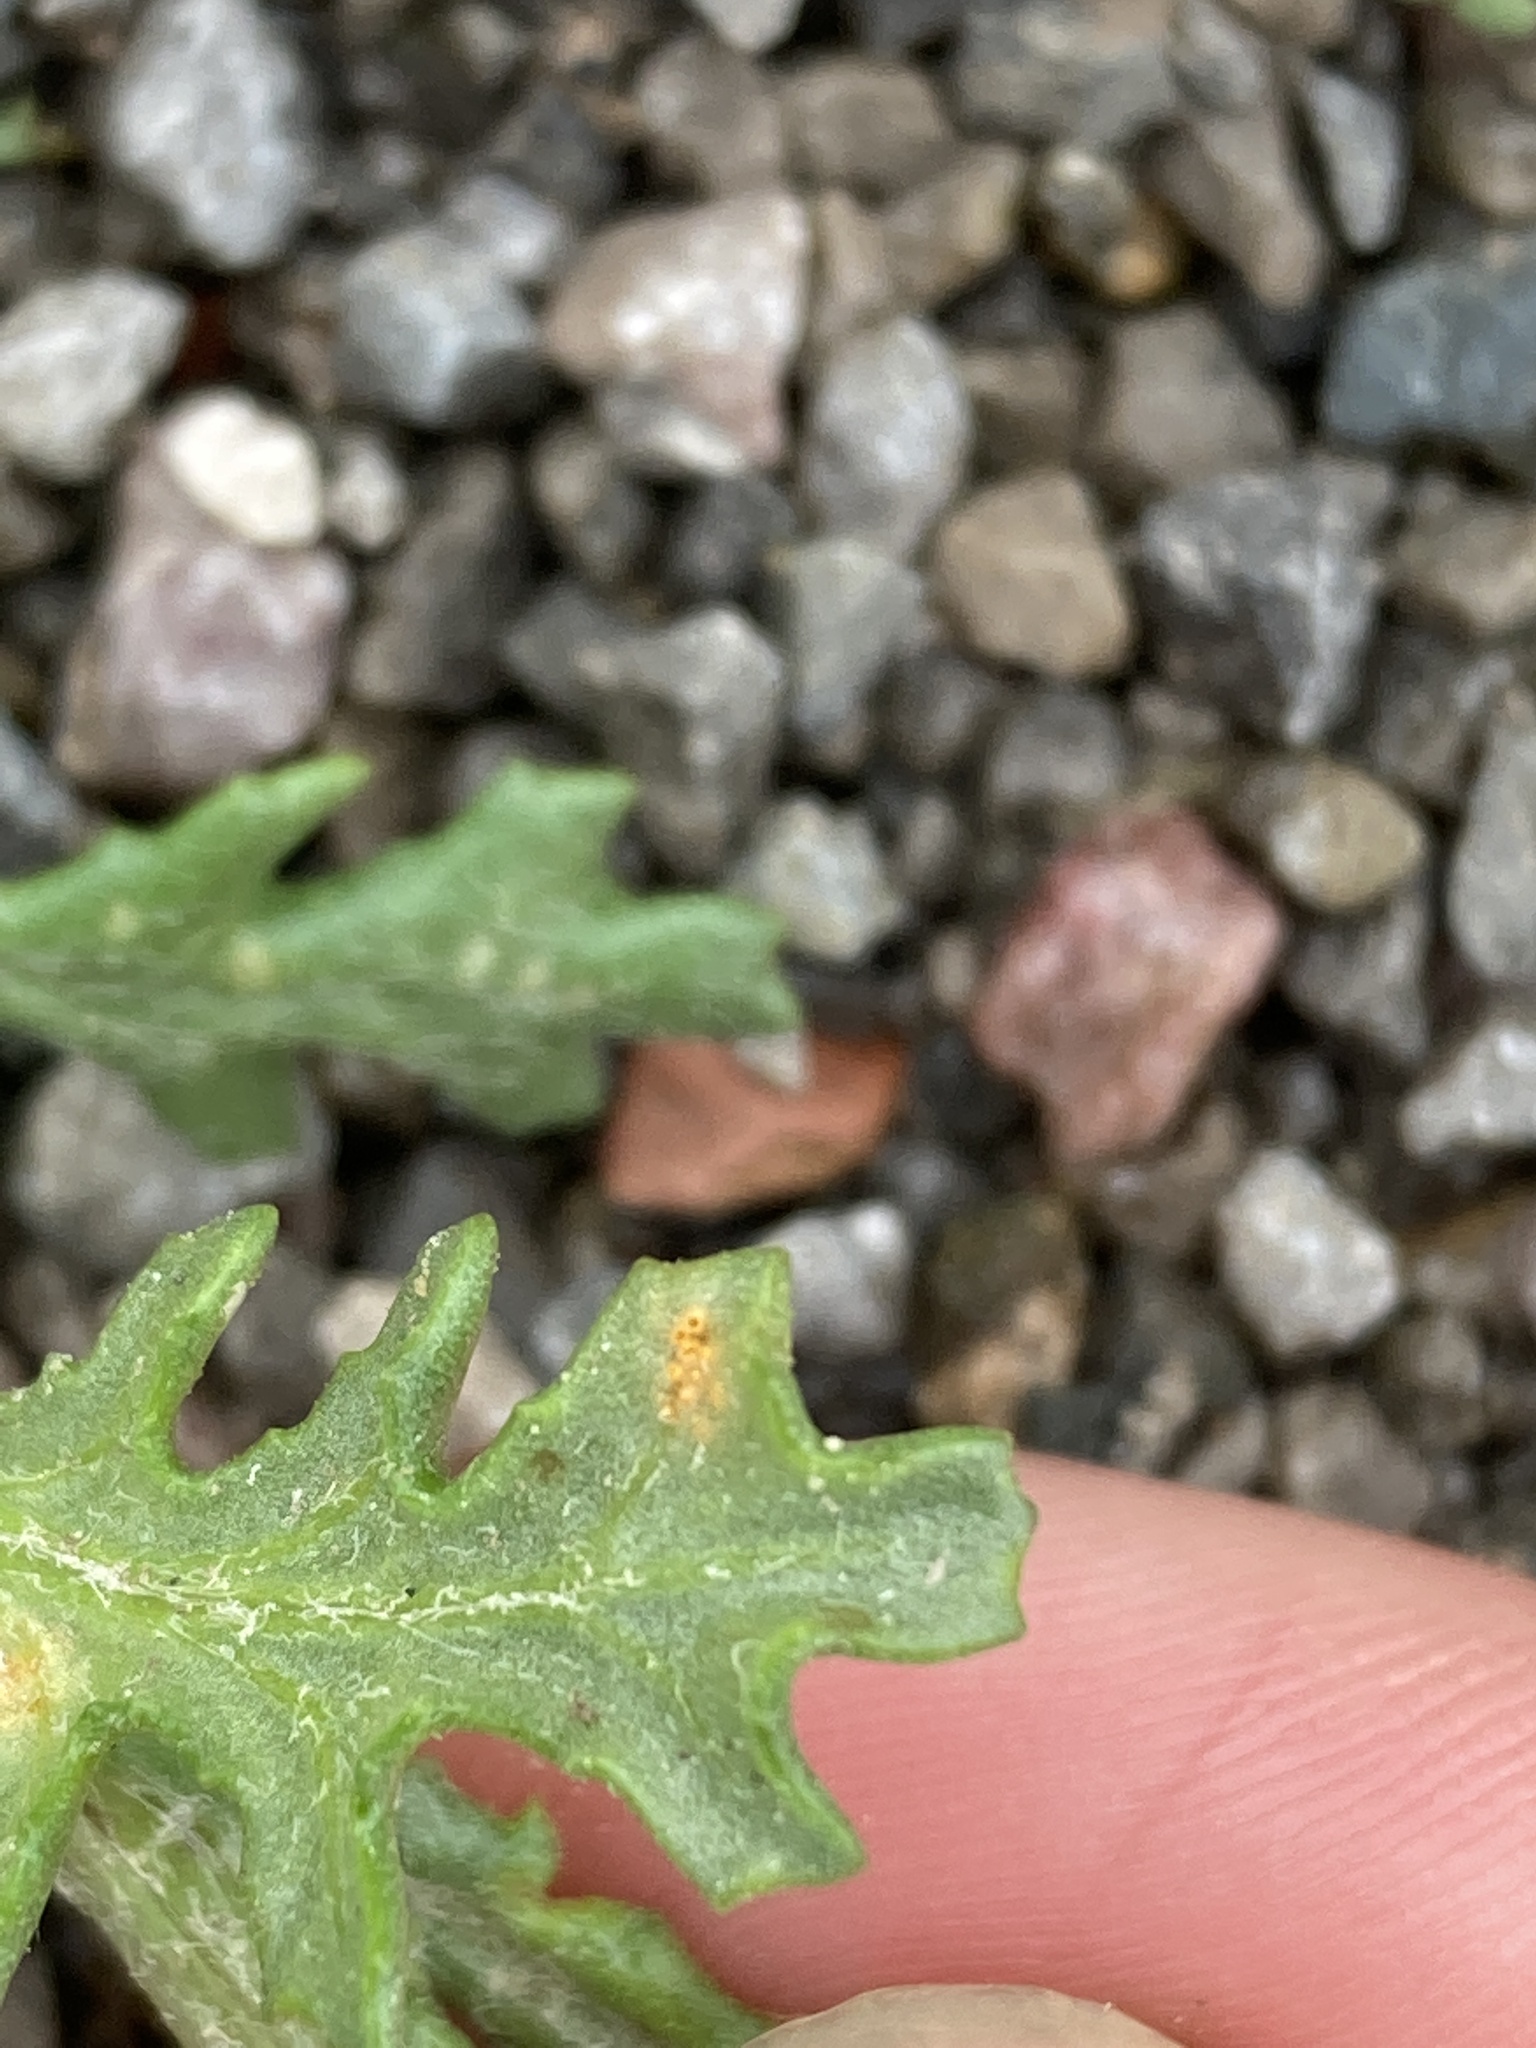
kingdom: Fungi
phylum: Basidiomycota
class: Pucciniomycetes
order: Pucciniales
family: Pucciniaceae
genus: Puccinia
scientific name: Puccinia lagenophorae
